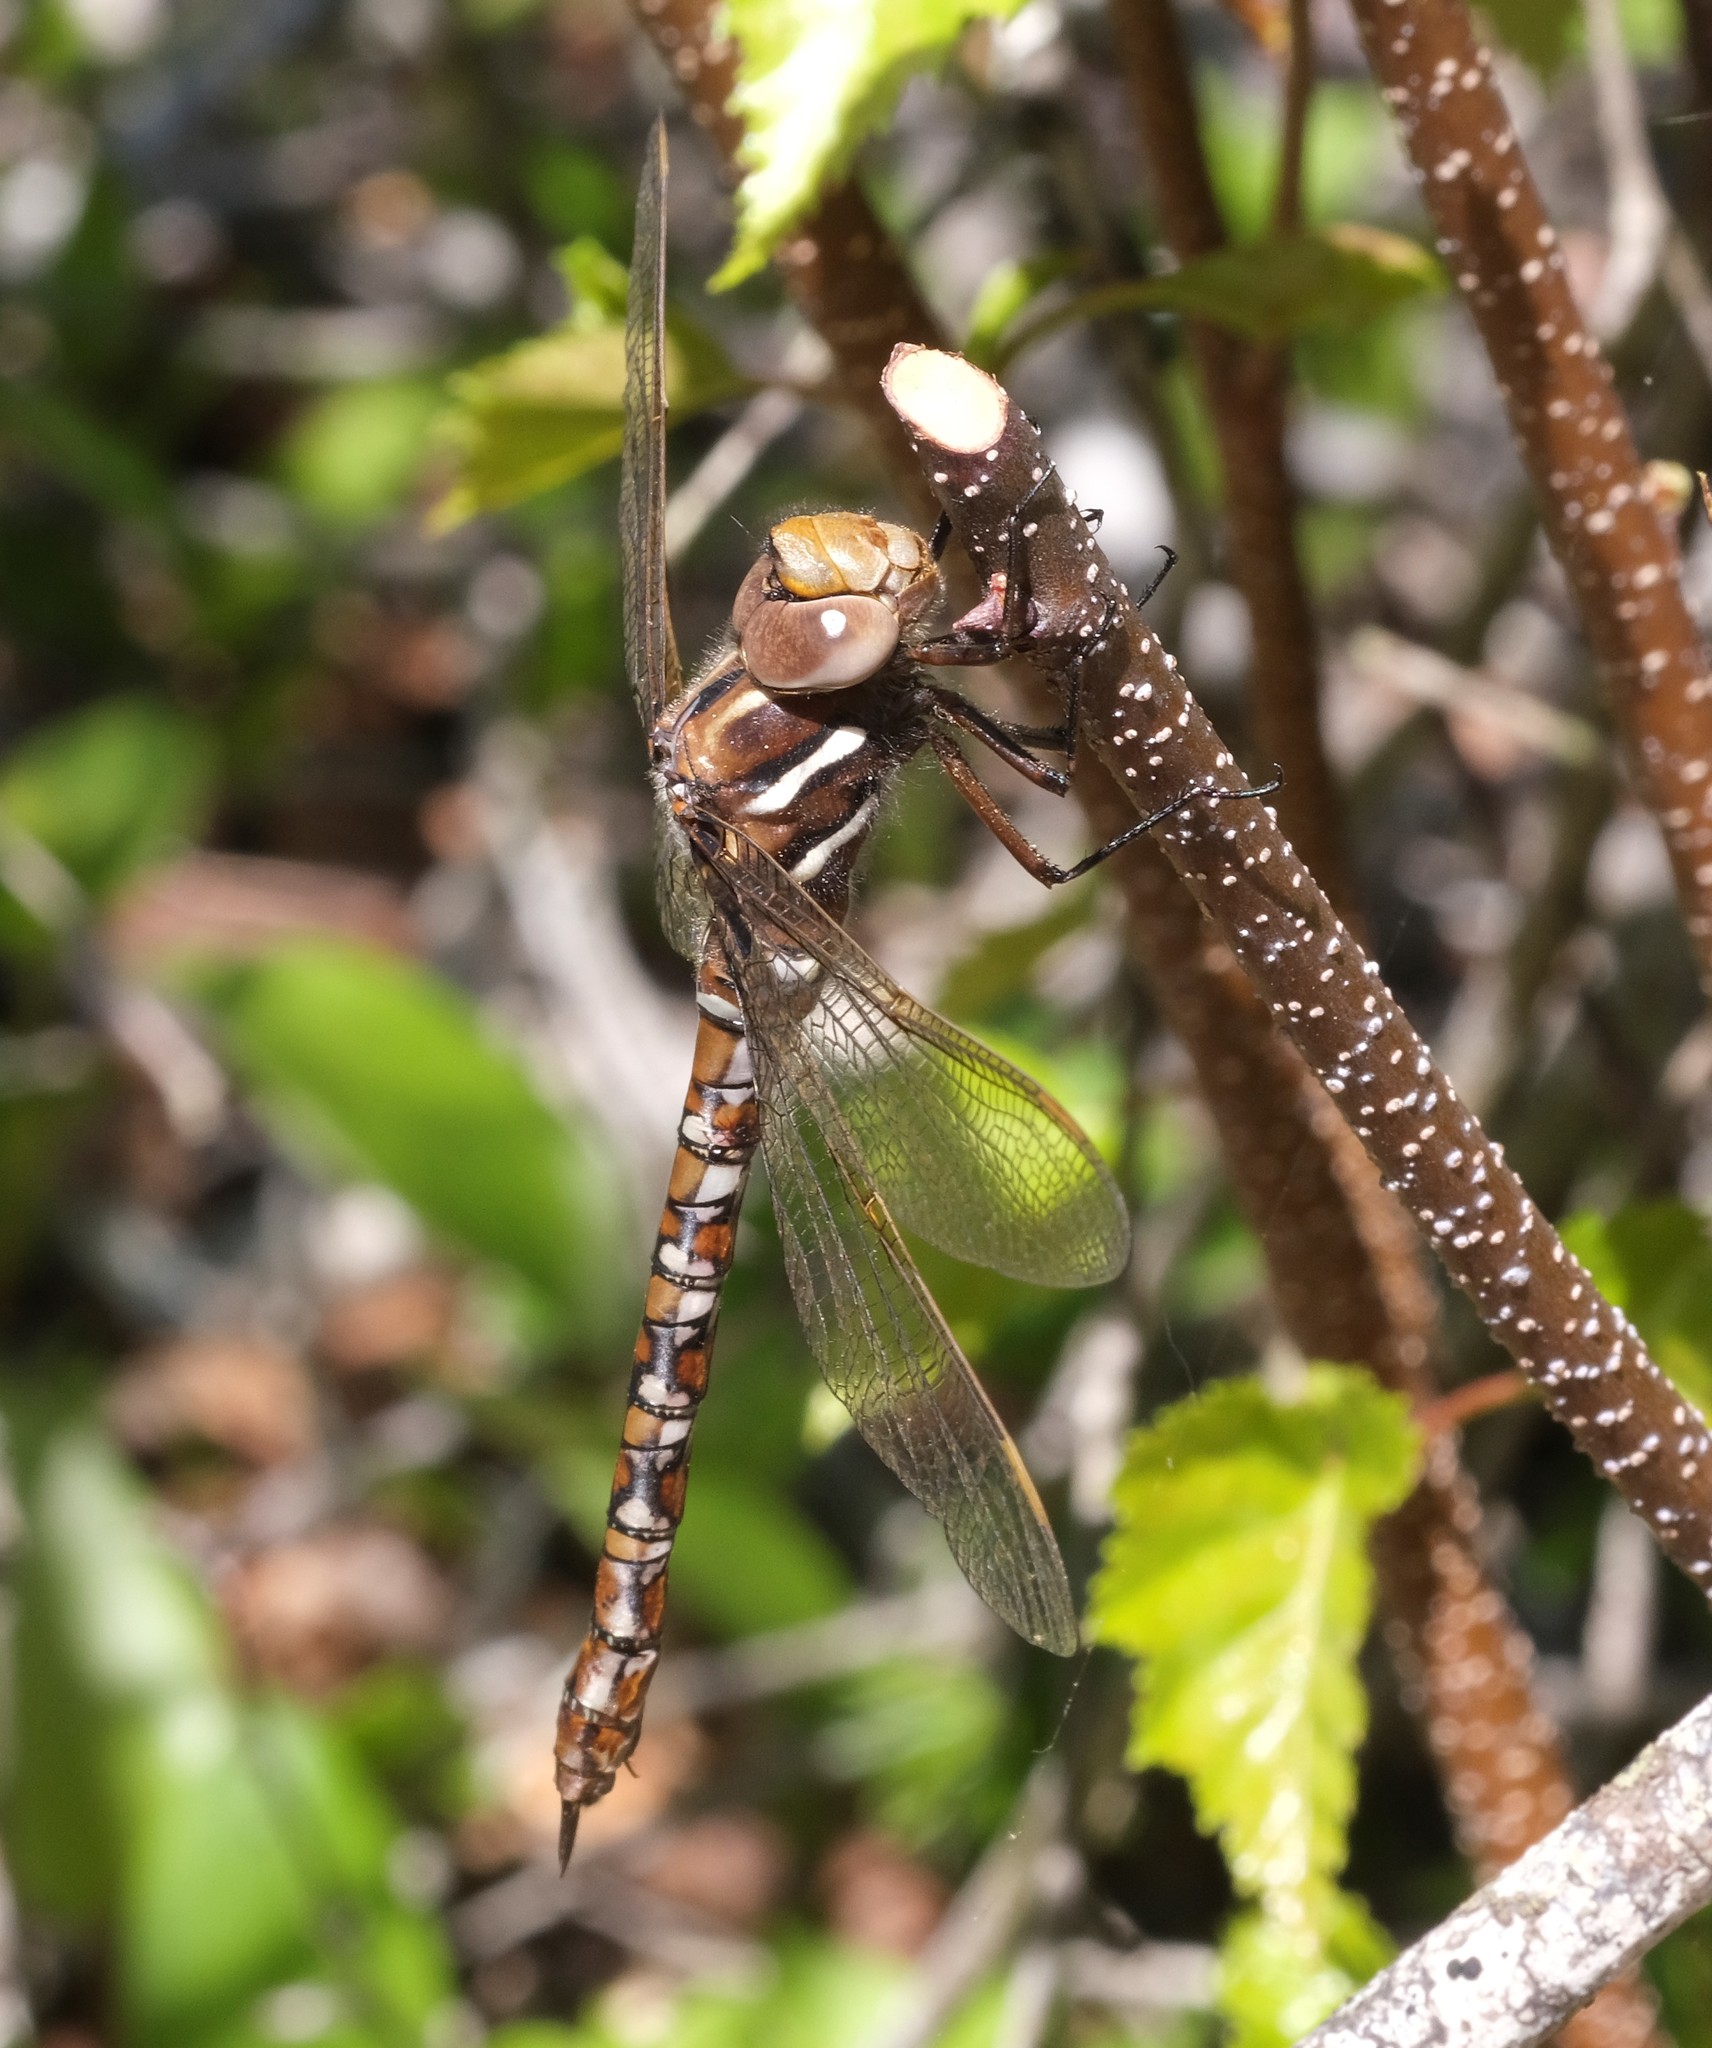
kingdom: Animalia
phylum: Arthropoda
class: Insecta
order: Odonata
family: Aeshnidae
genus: Basiaeschna
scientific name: Basiaeschna janata
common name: Springtime darner
